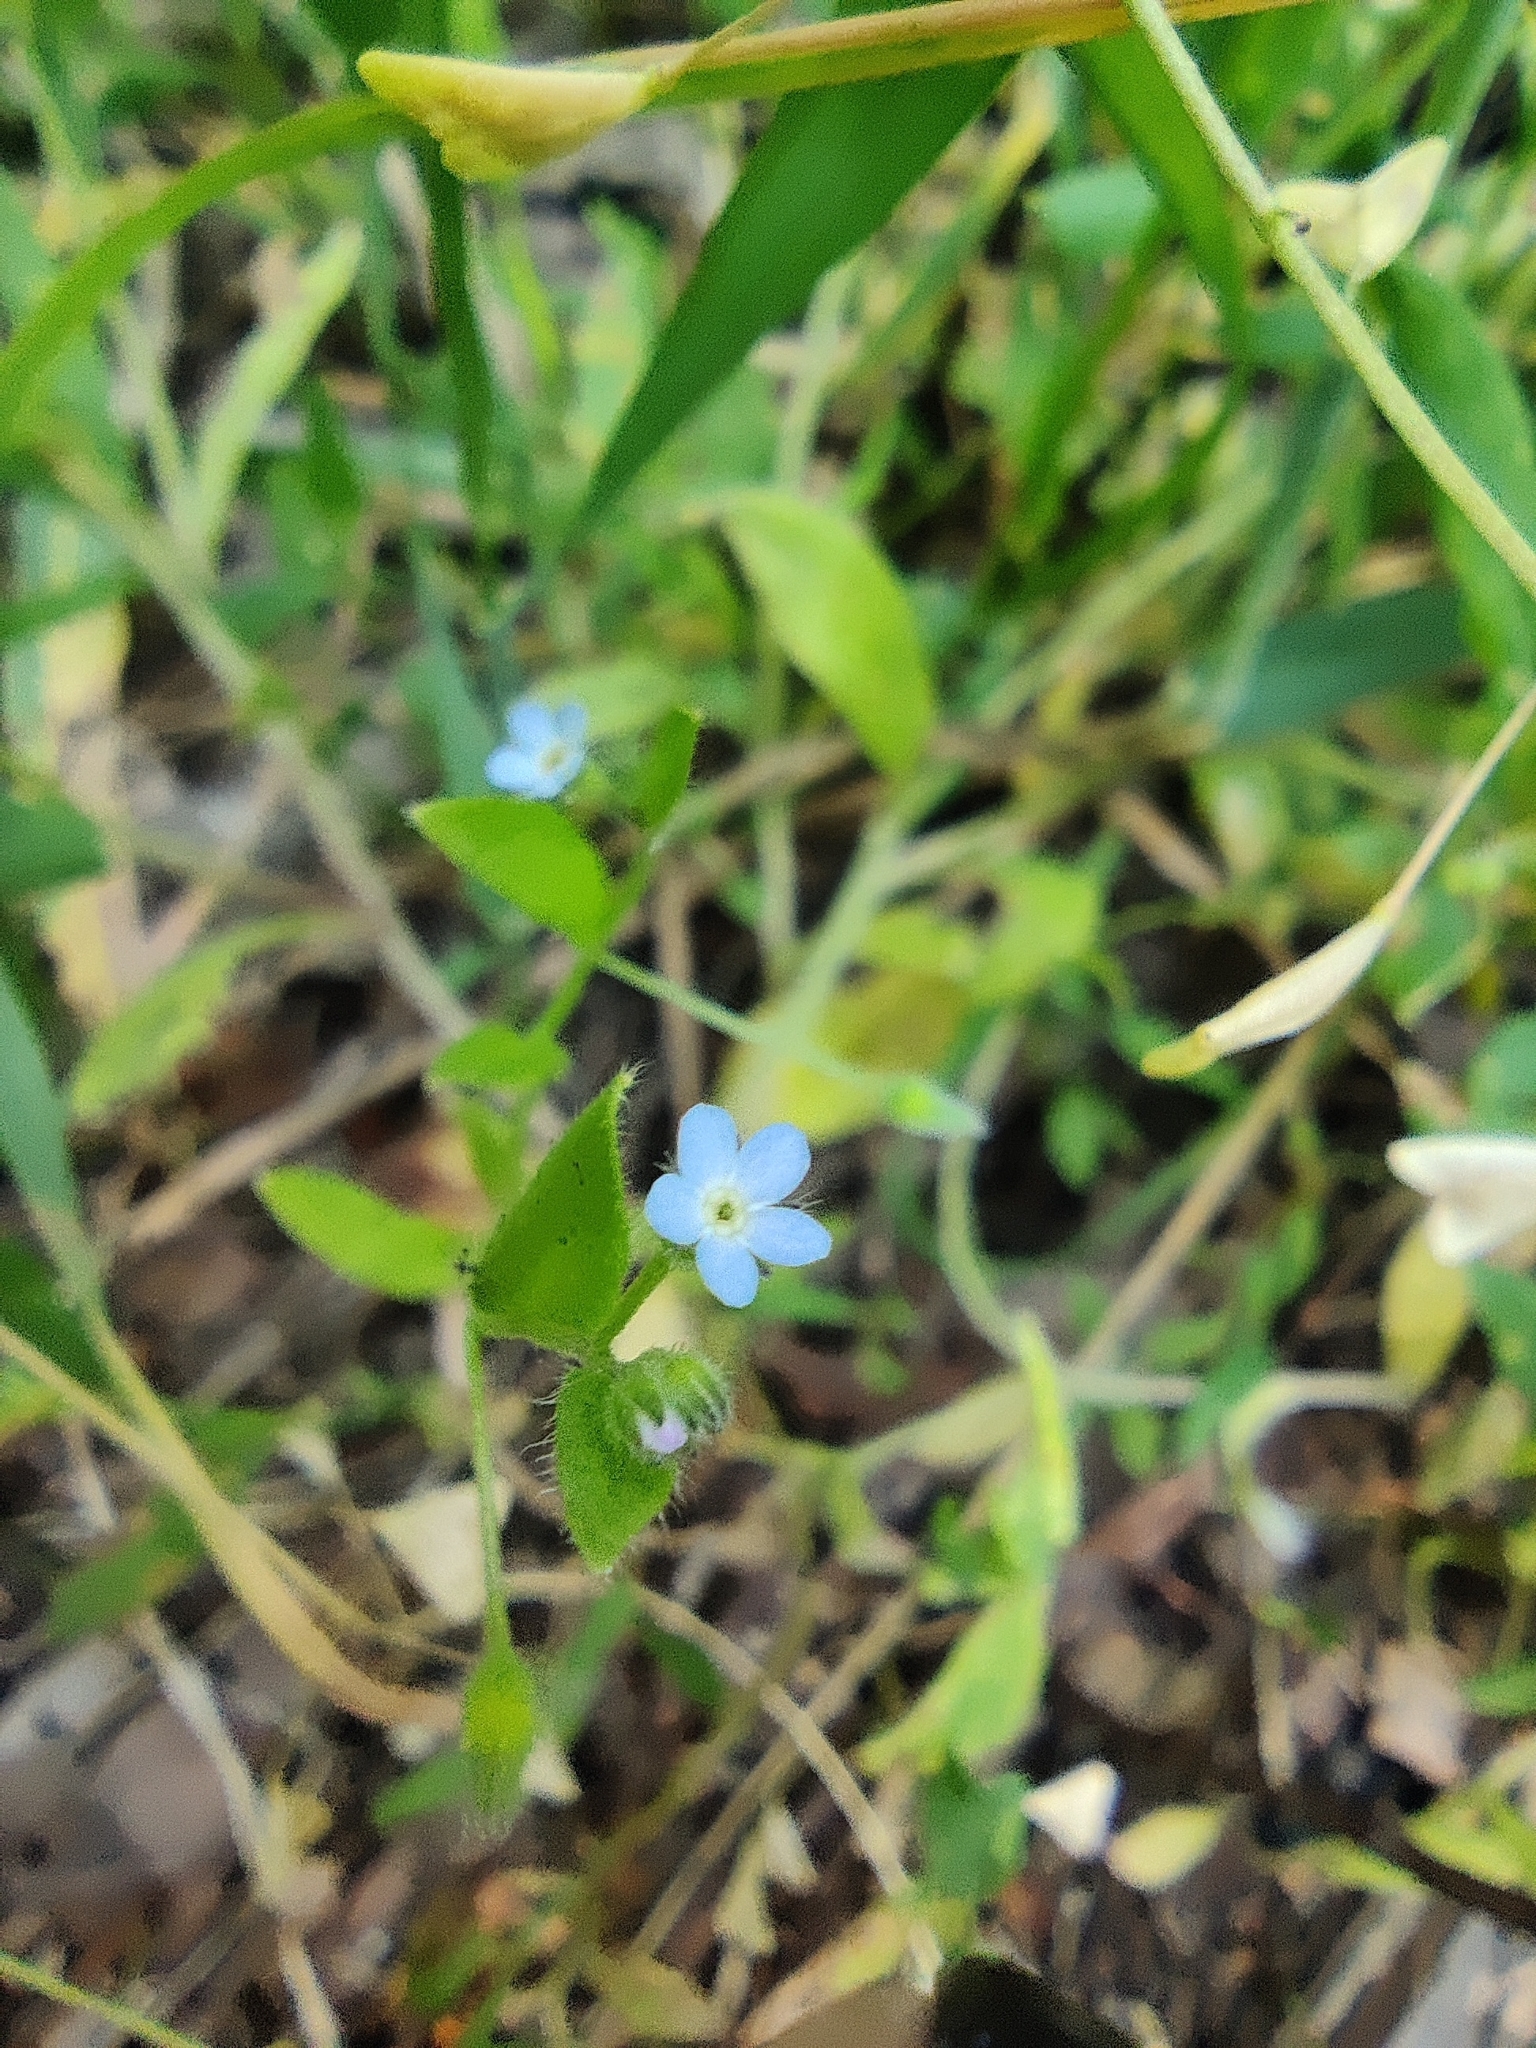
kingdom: Plantae
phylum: Tracheophyta
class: Magnoliopsida
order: Boraginales
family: Boraginaceae
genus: Myosotis
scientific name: Myosotis sparsiflora
